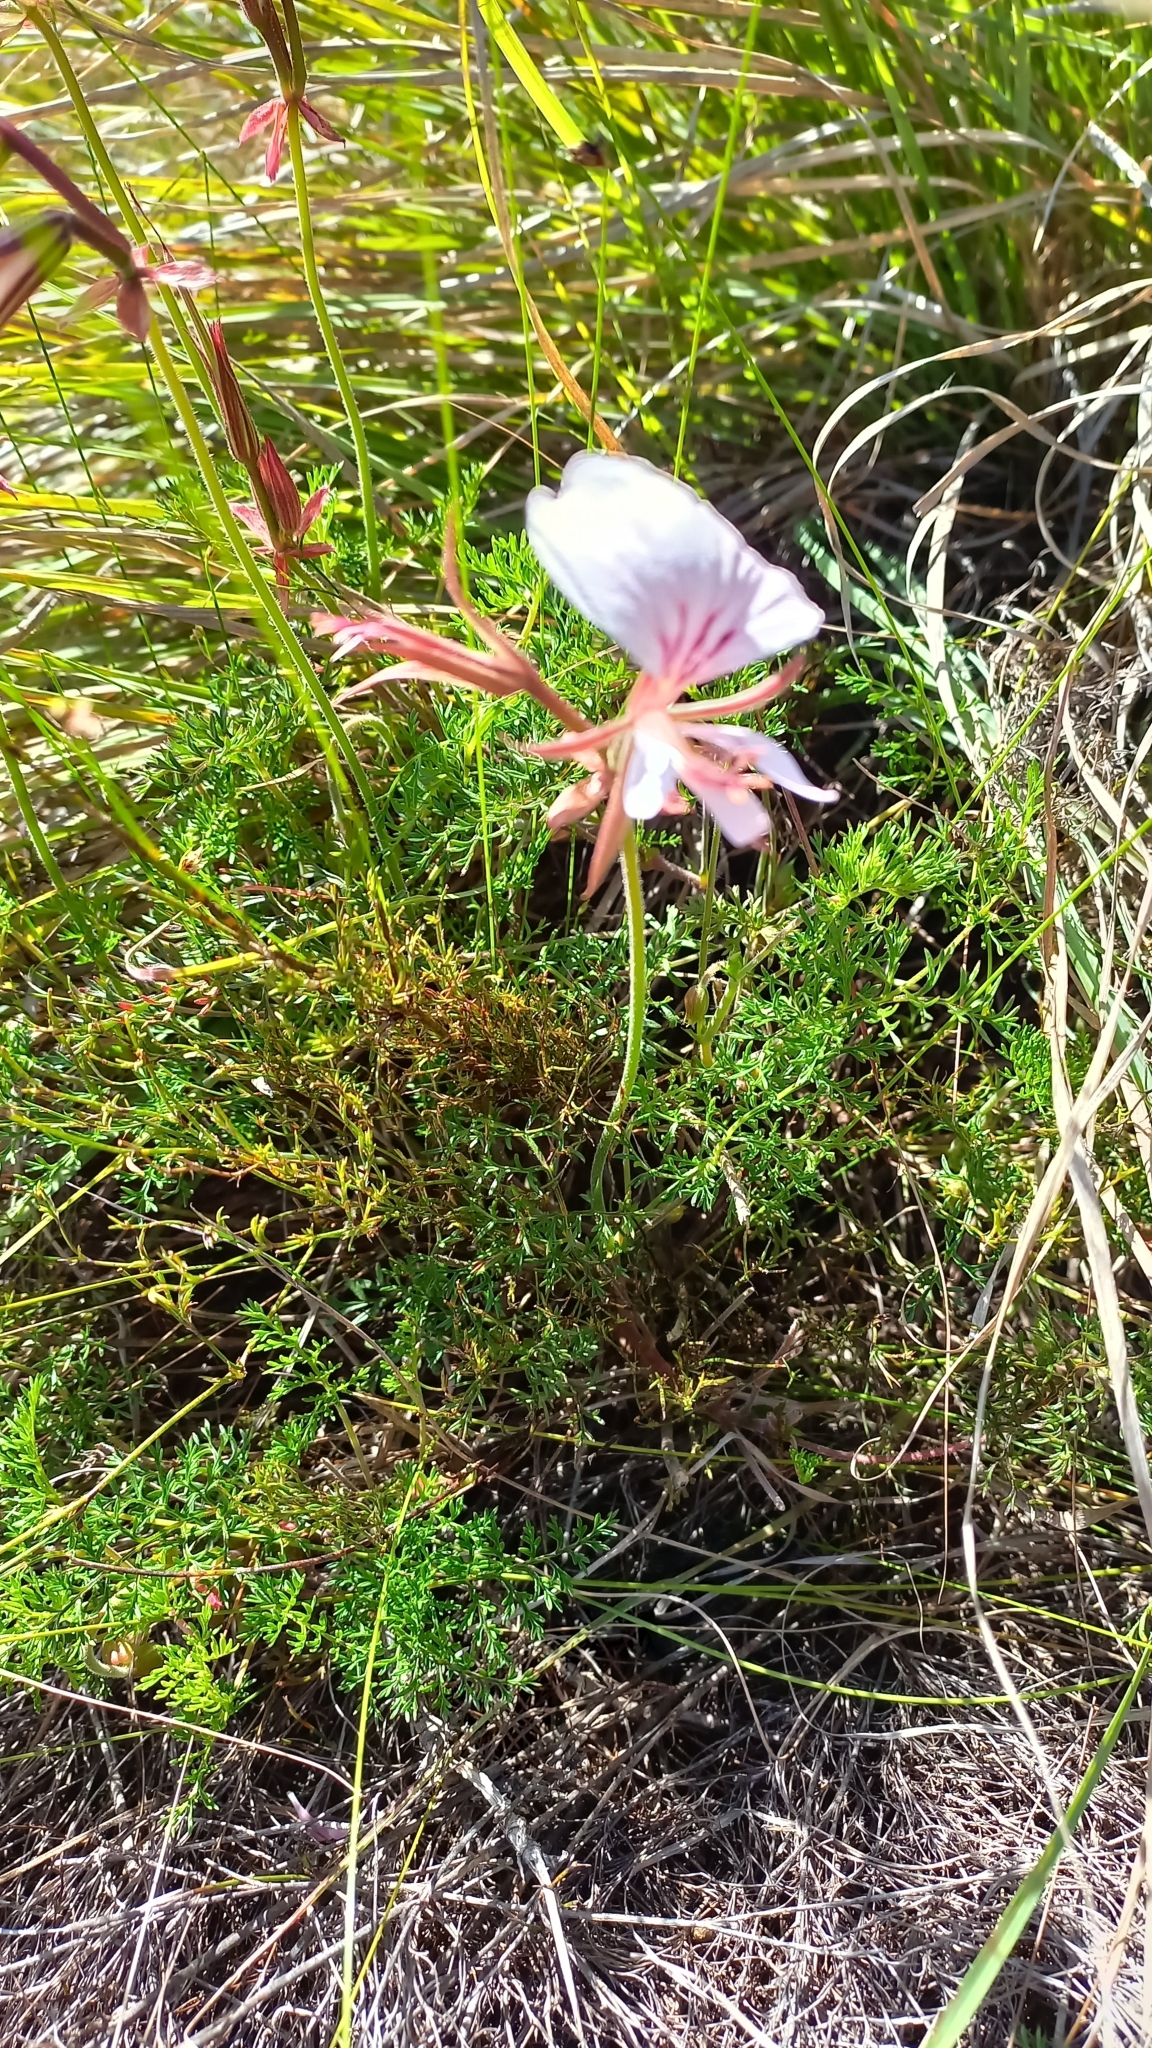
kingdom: Plantae
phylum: Tracheophyta
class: Magnoliopsida
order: Geraniales
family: Geraniaceae
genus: Pelargonium
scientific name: Pelargonium myrrhifolium
